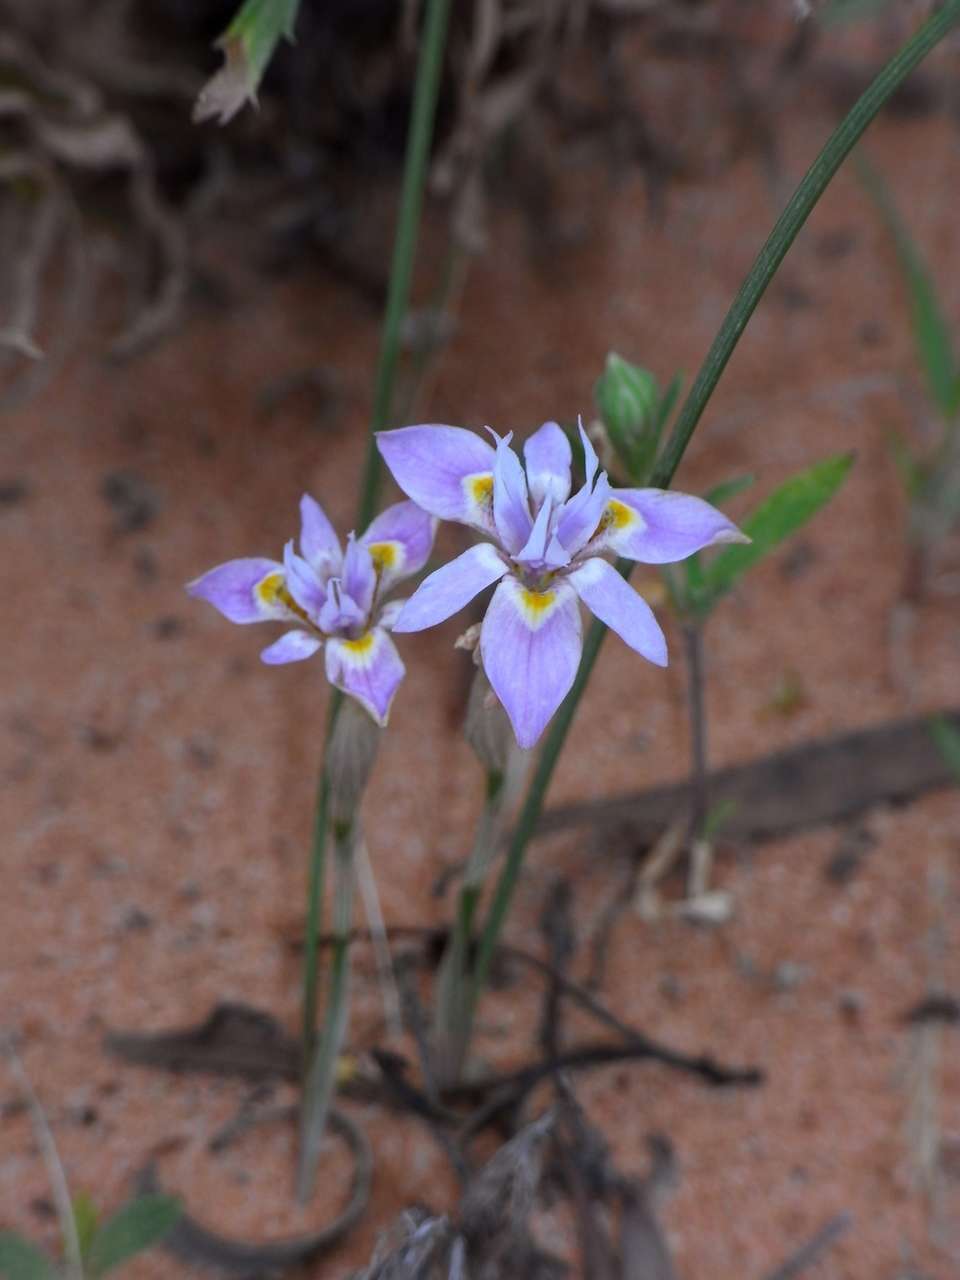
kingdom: Plantae
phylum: Tracheophyta
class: Liliopsida
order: Asparagales
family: Iridaceae
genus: Moraea
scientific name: Moraea setifolia
